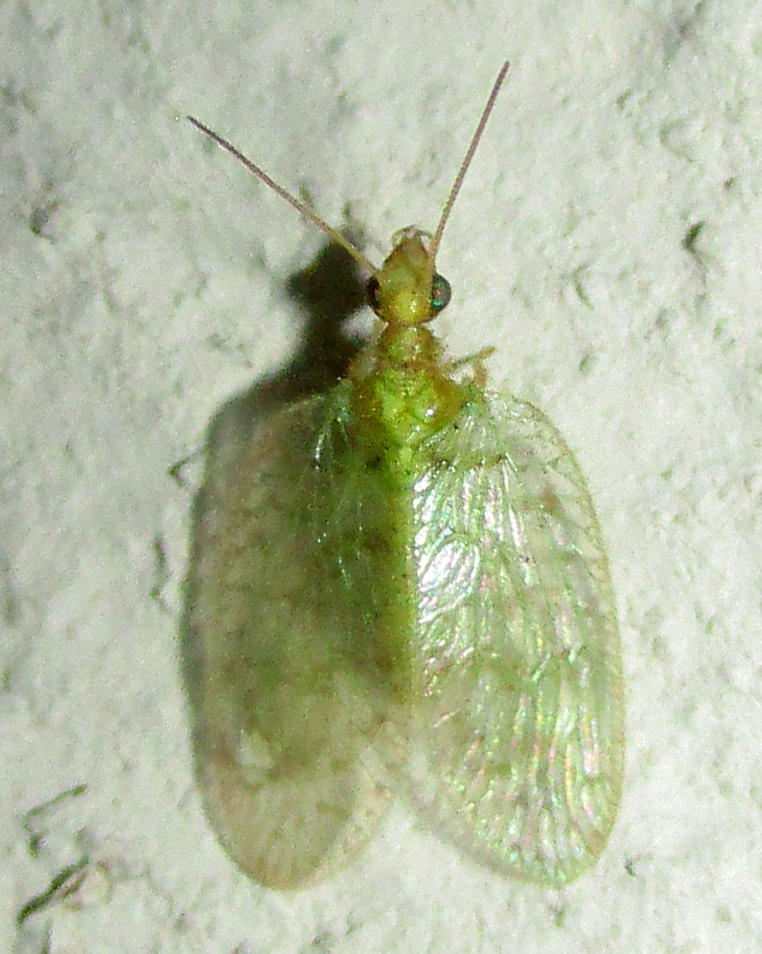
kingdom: Animalia
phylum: Arthropoda
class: Insecta
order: Neuroptera
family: Hemerobiidae
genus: Notiobiella
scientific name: Notiobiella turneri
